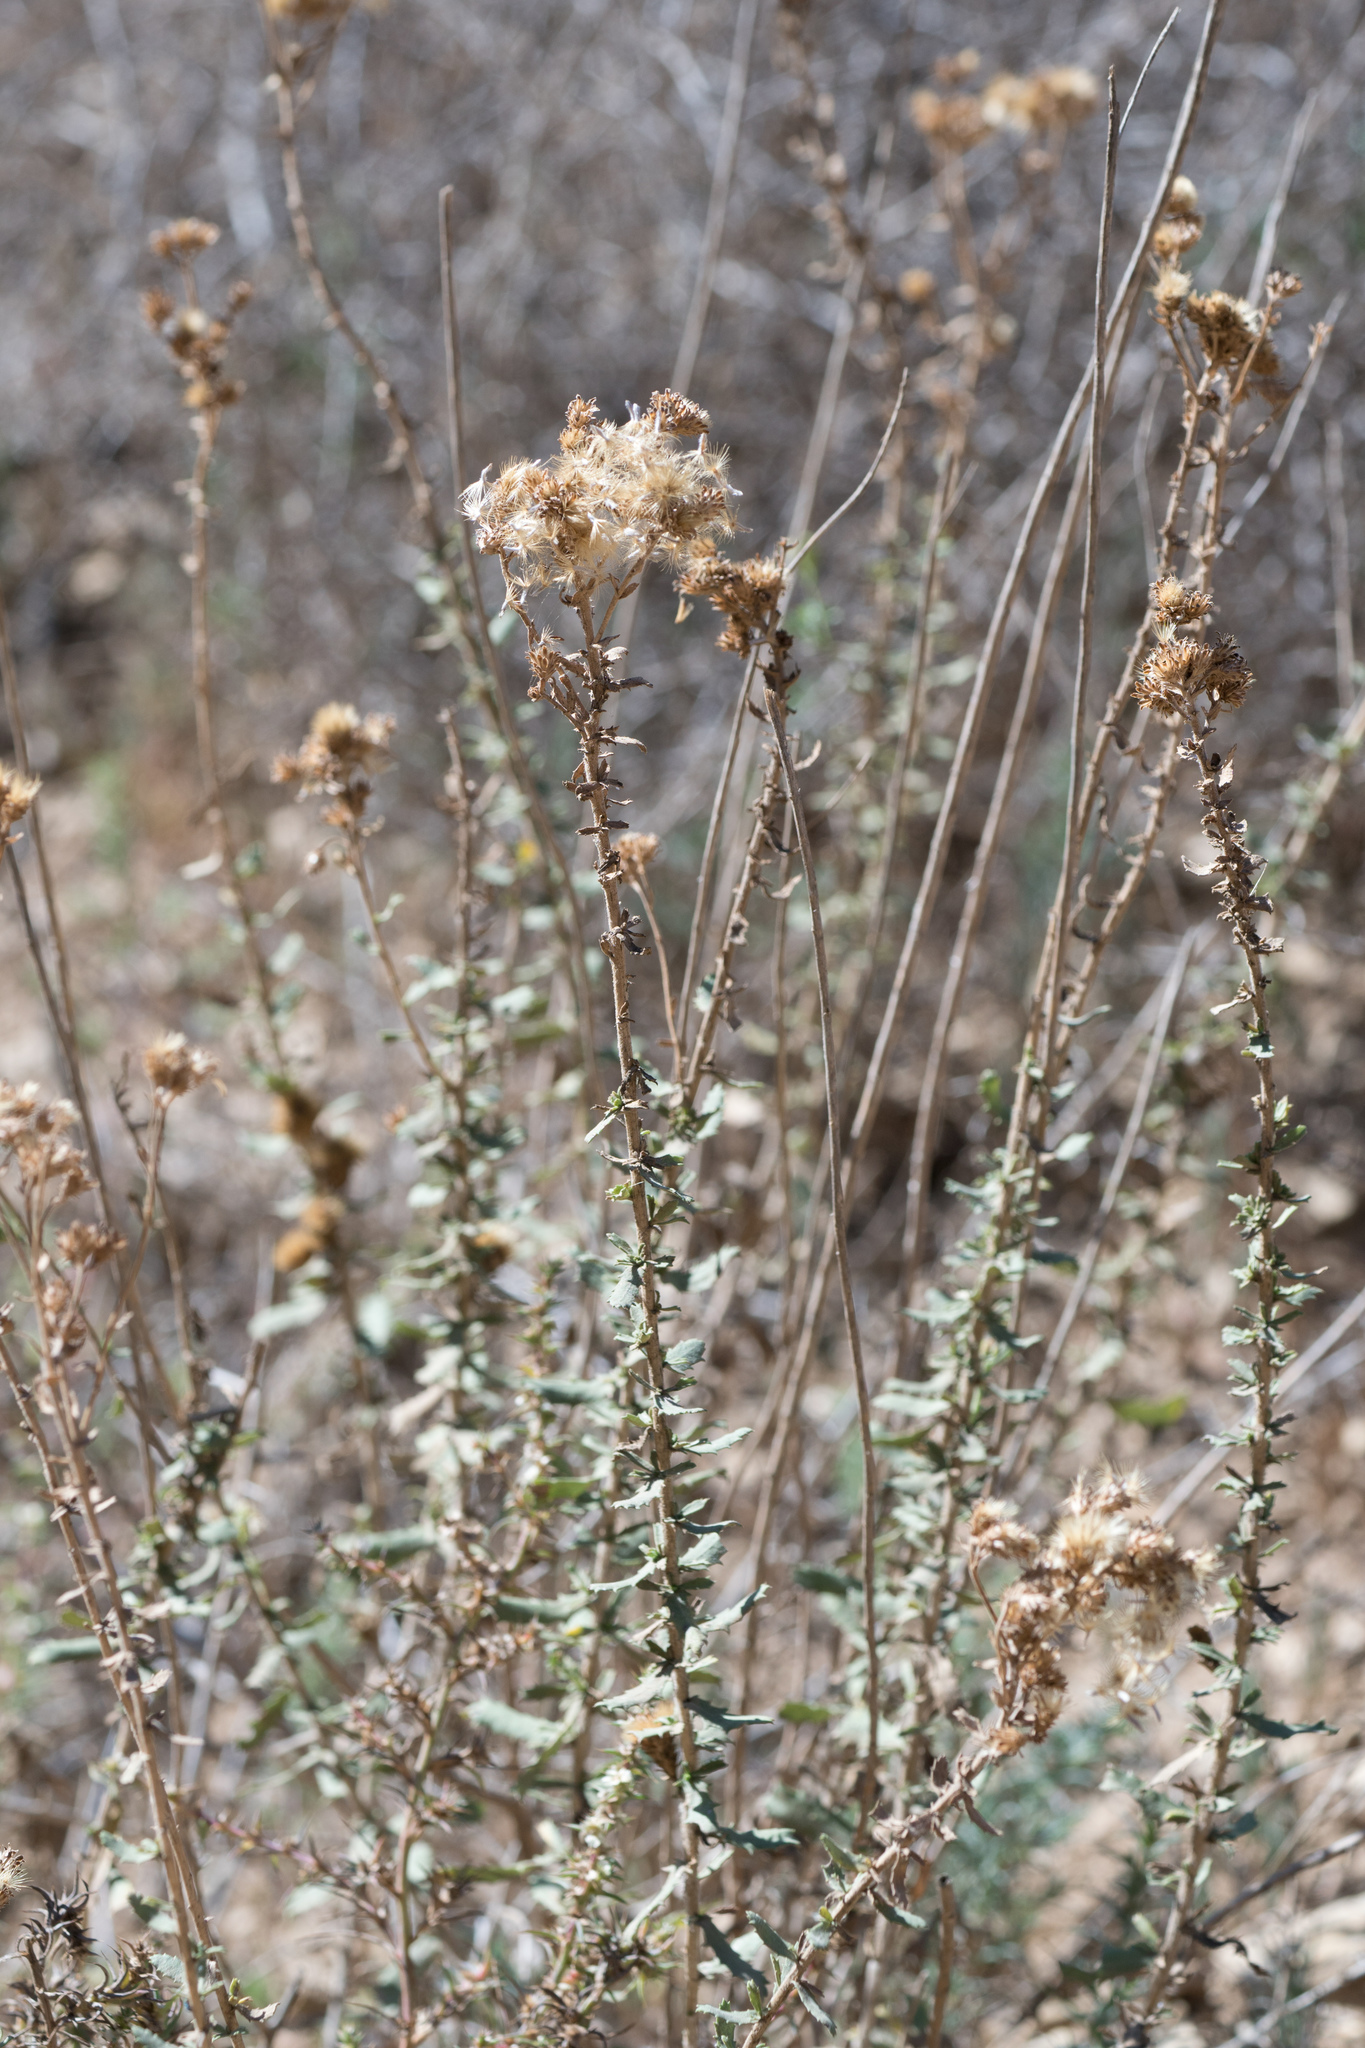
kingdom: Plantae
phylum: Tracheophyta
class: Magnoliopsida
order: Asterales
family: Asteraceae
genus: Isocoma
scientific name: Isocoma menziesii
